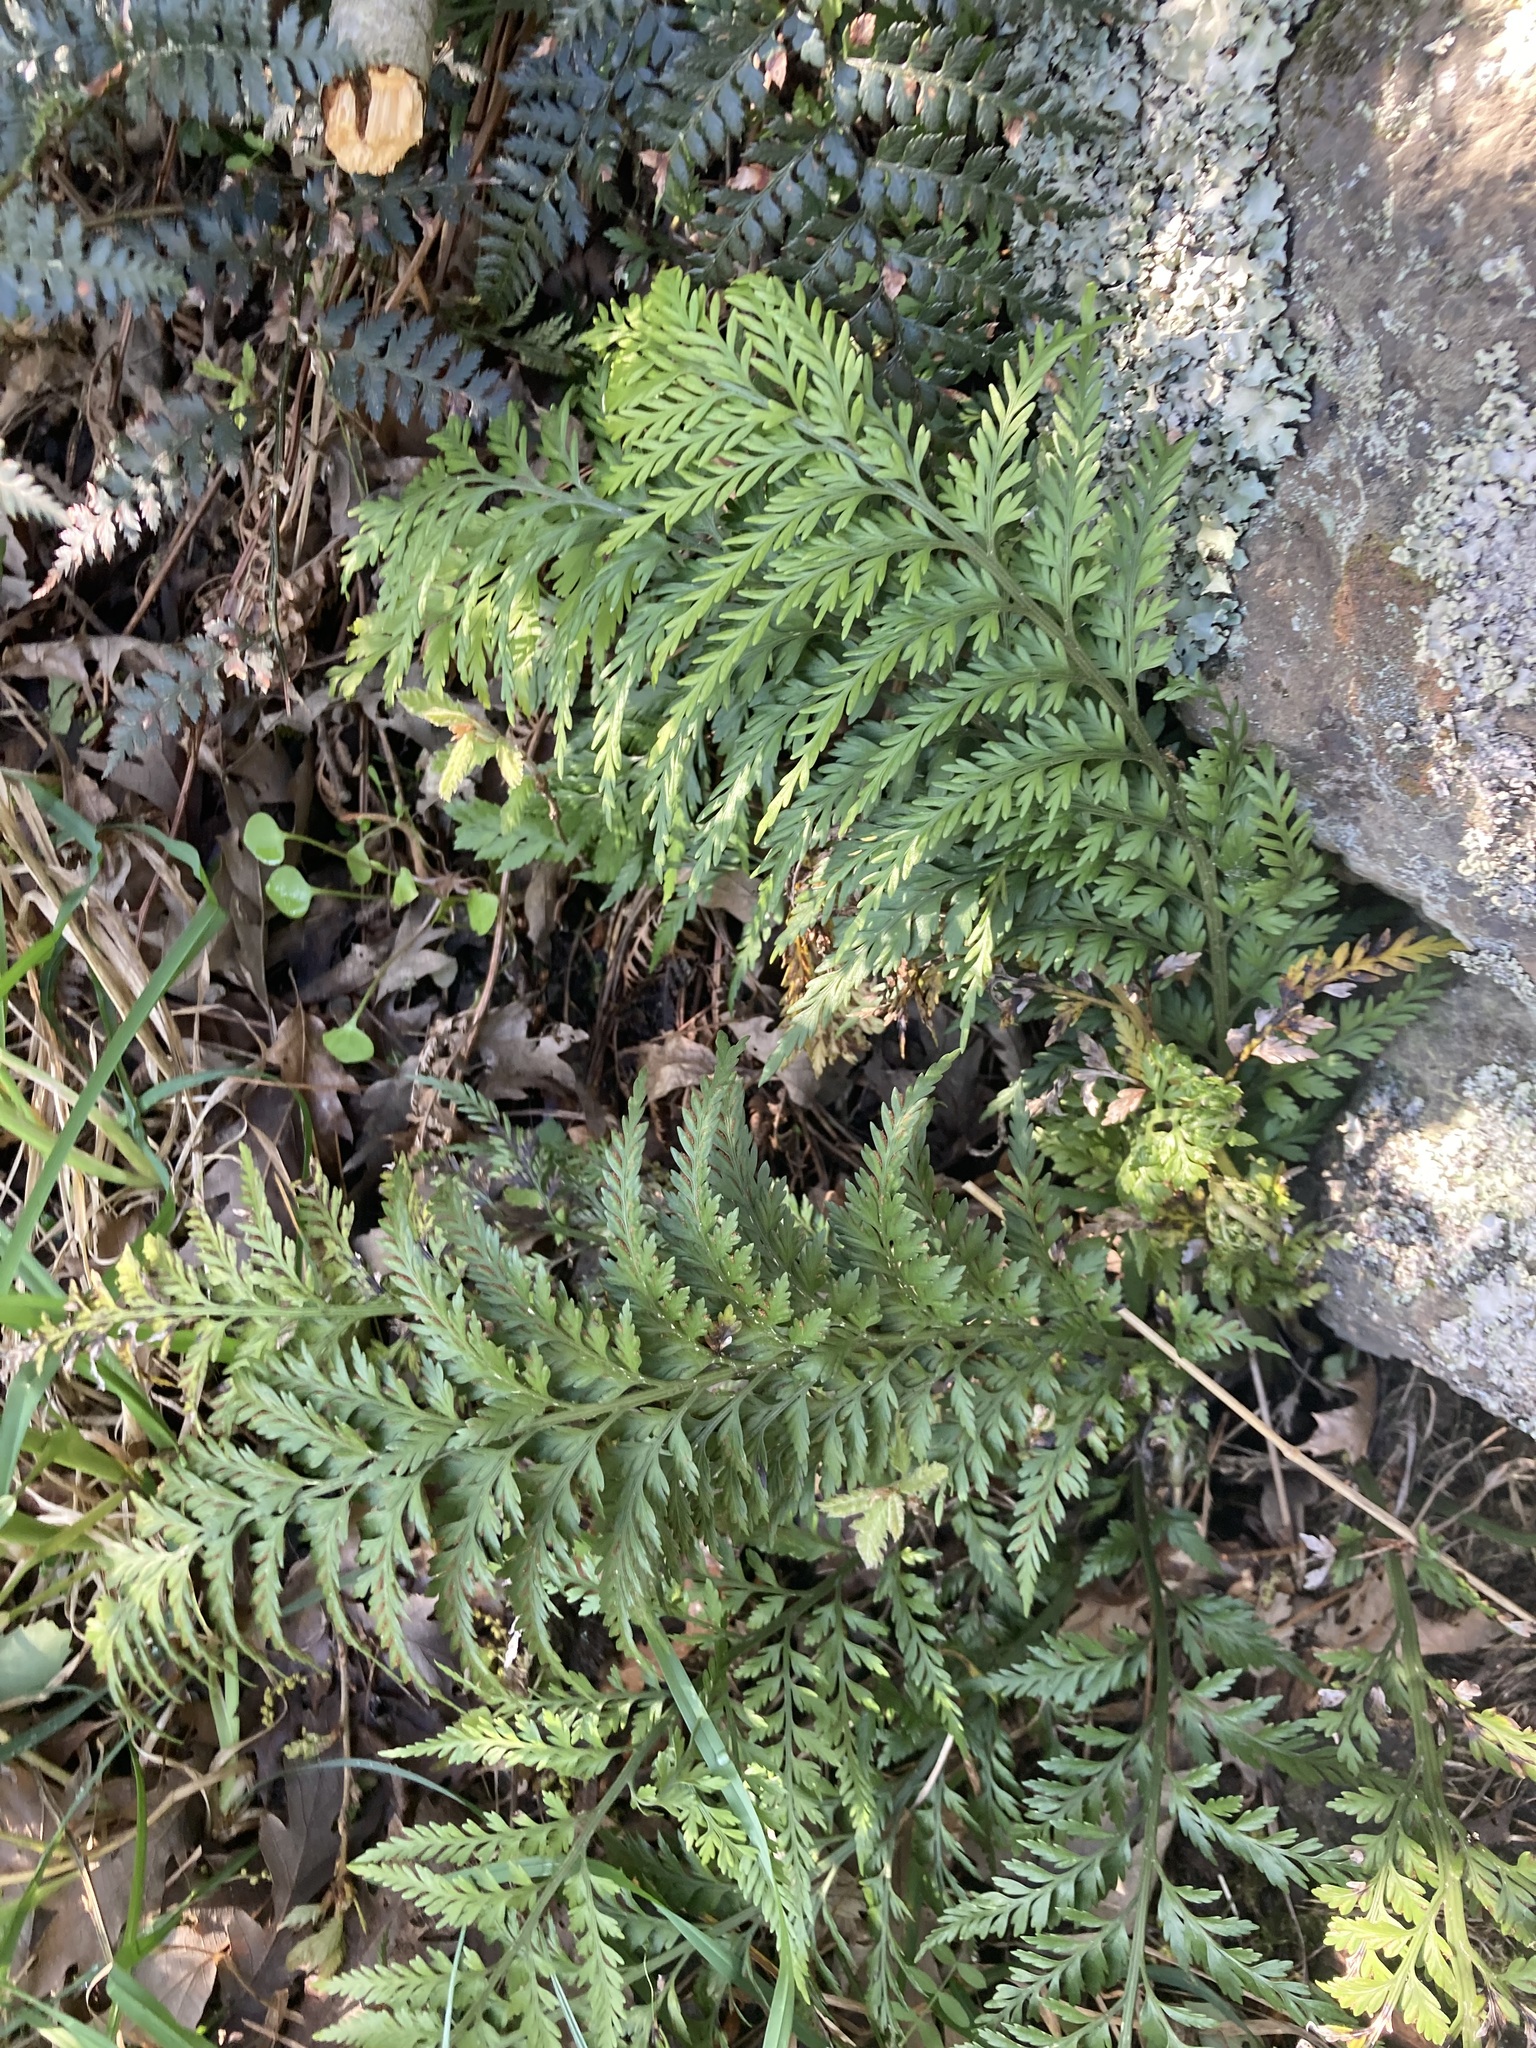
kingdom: Plantae
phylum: Tracheophyta
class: Polypodiopsida
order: Polypodiales
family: Aspleniaceae
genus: Asplenium
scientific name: Asplenium appendiculatum
